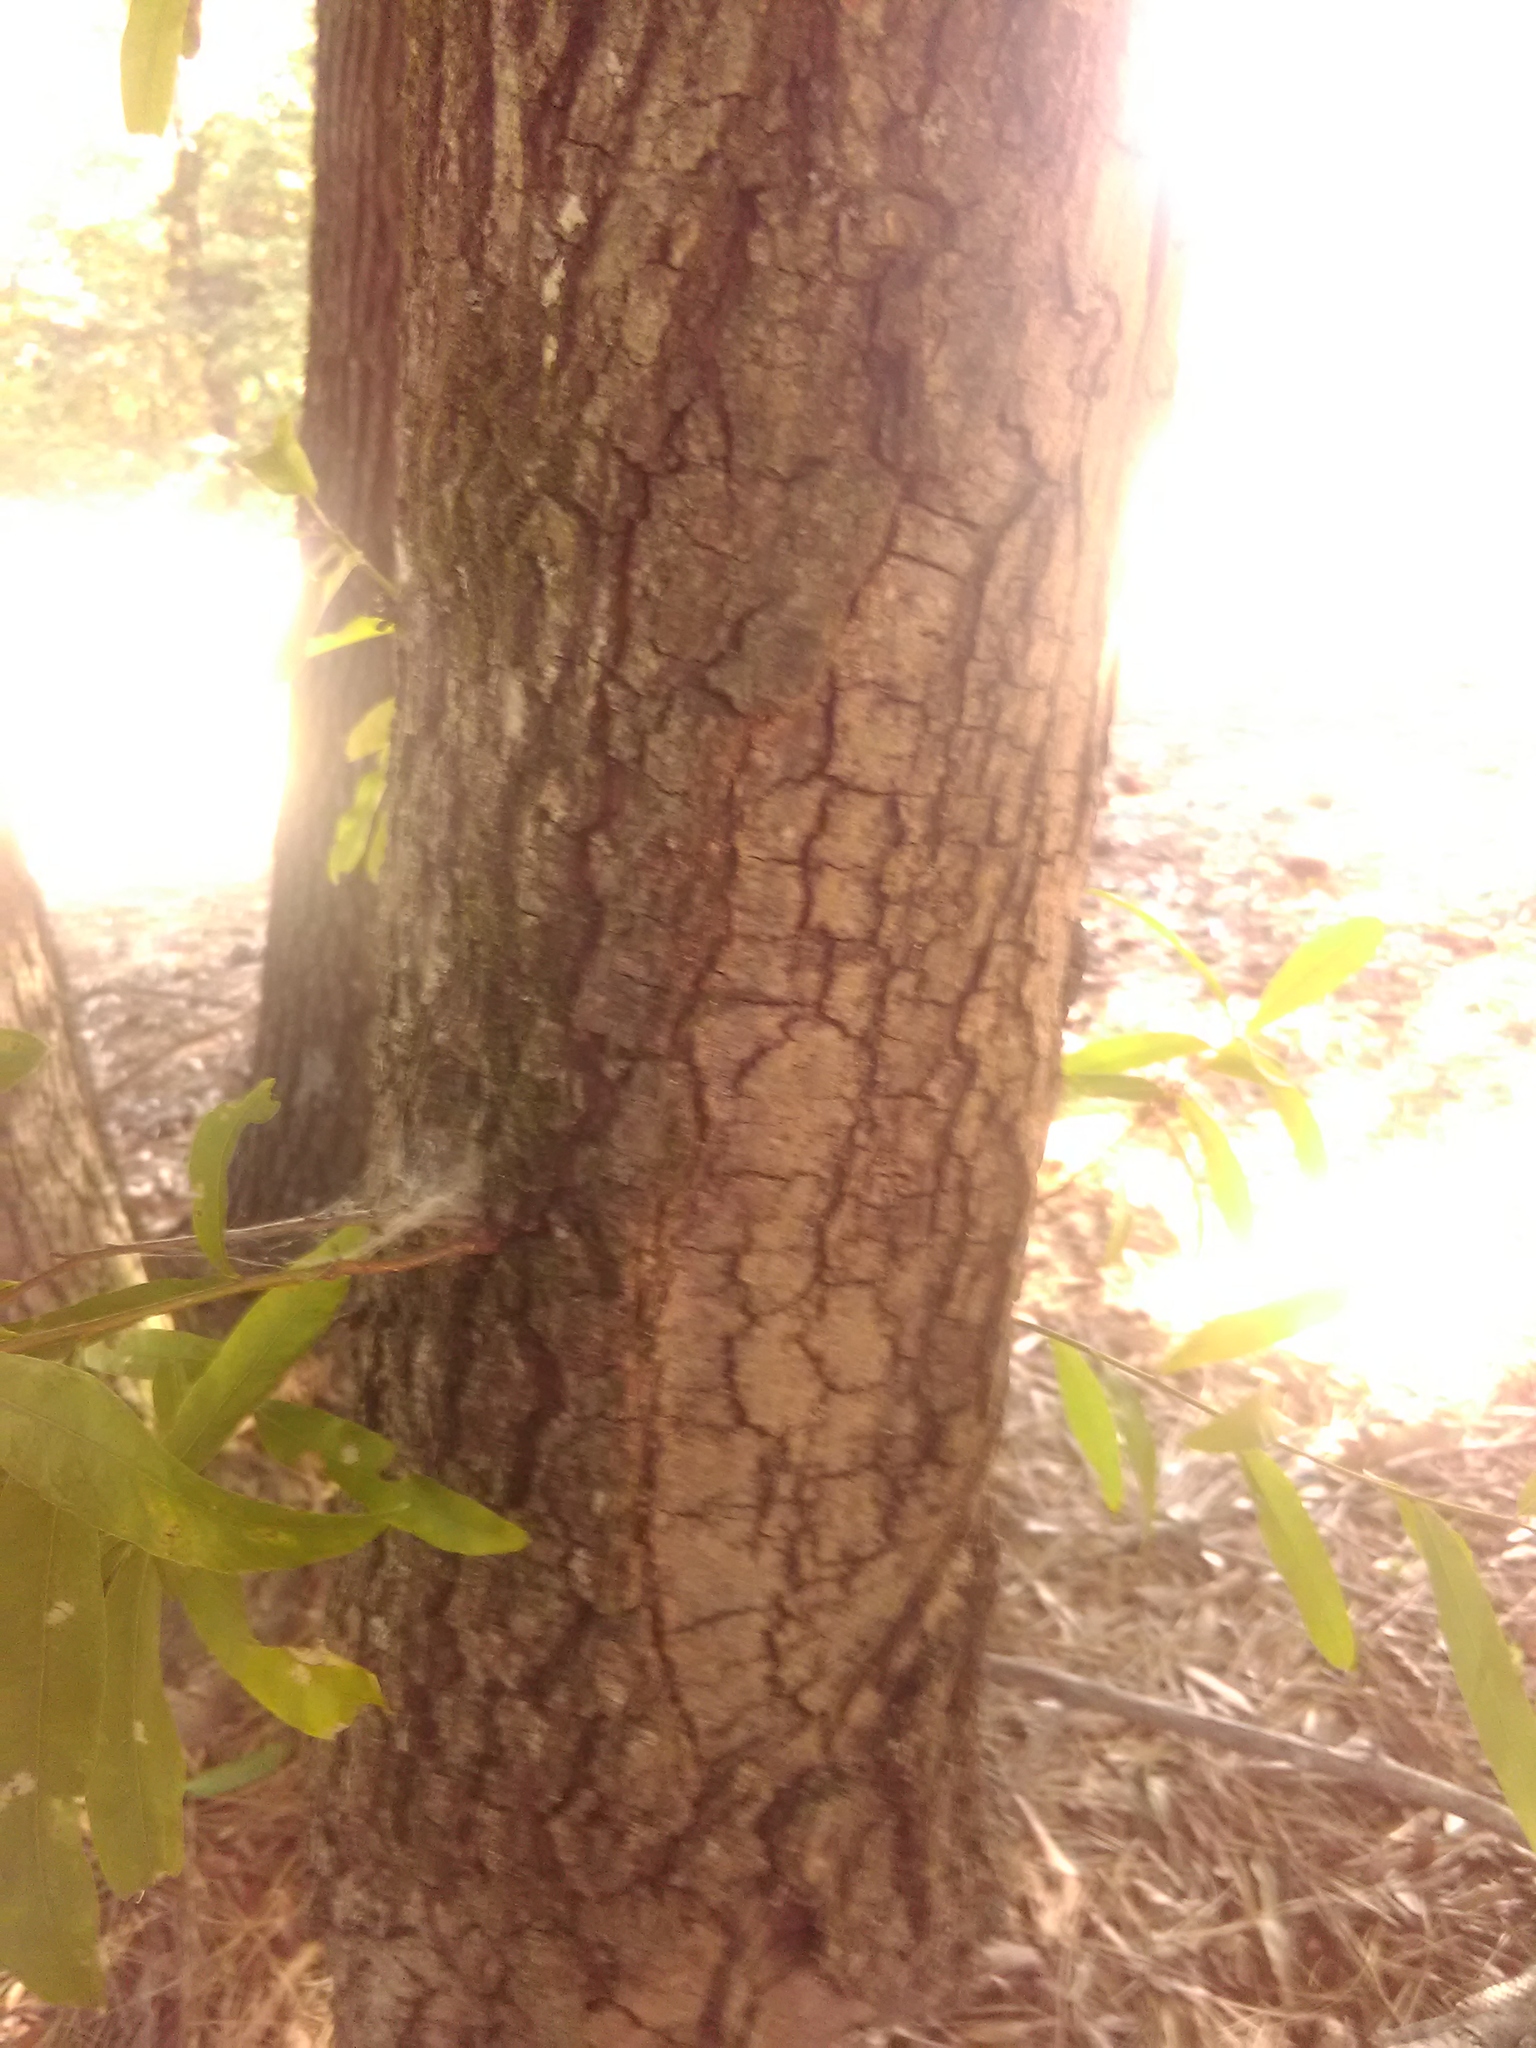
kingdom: Plantae
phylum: Tracheophyta
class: Magnoliopsida
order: Fagales
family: Fagaceae
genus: Quercus
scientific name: Quercus phellos
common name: Willow oak
